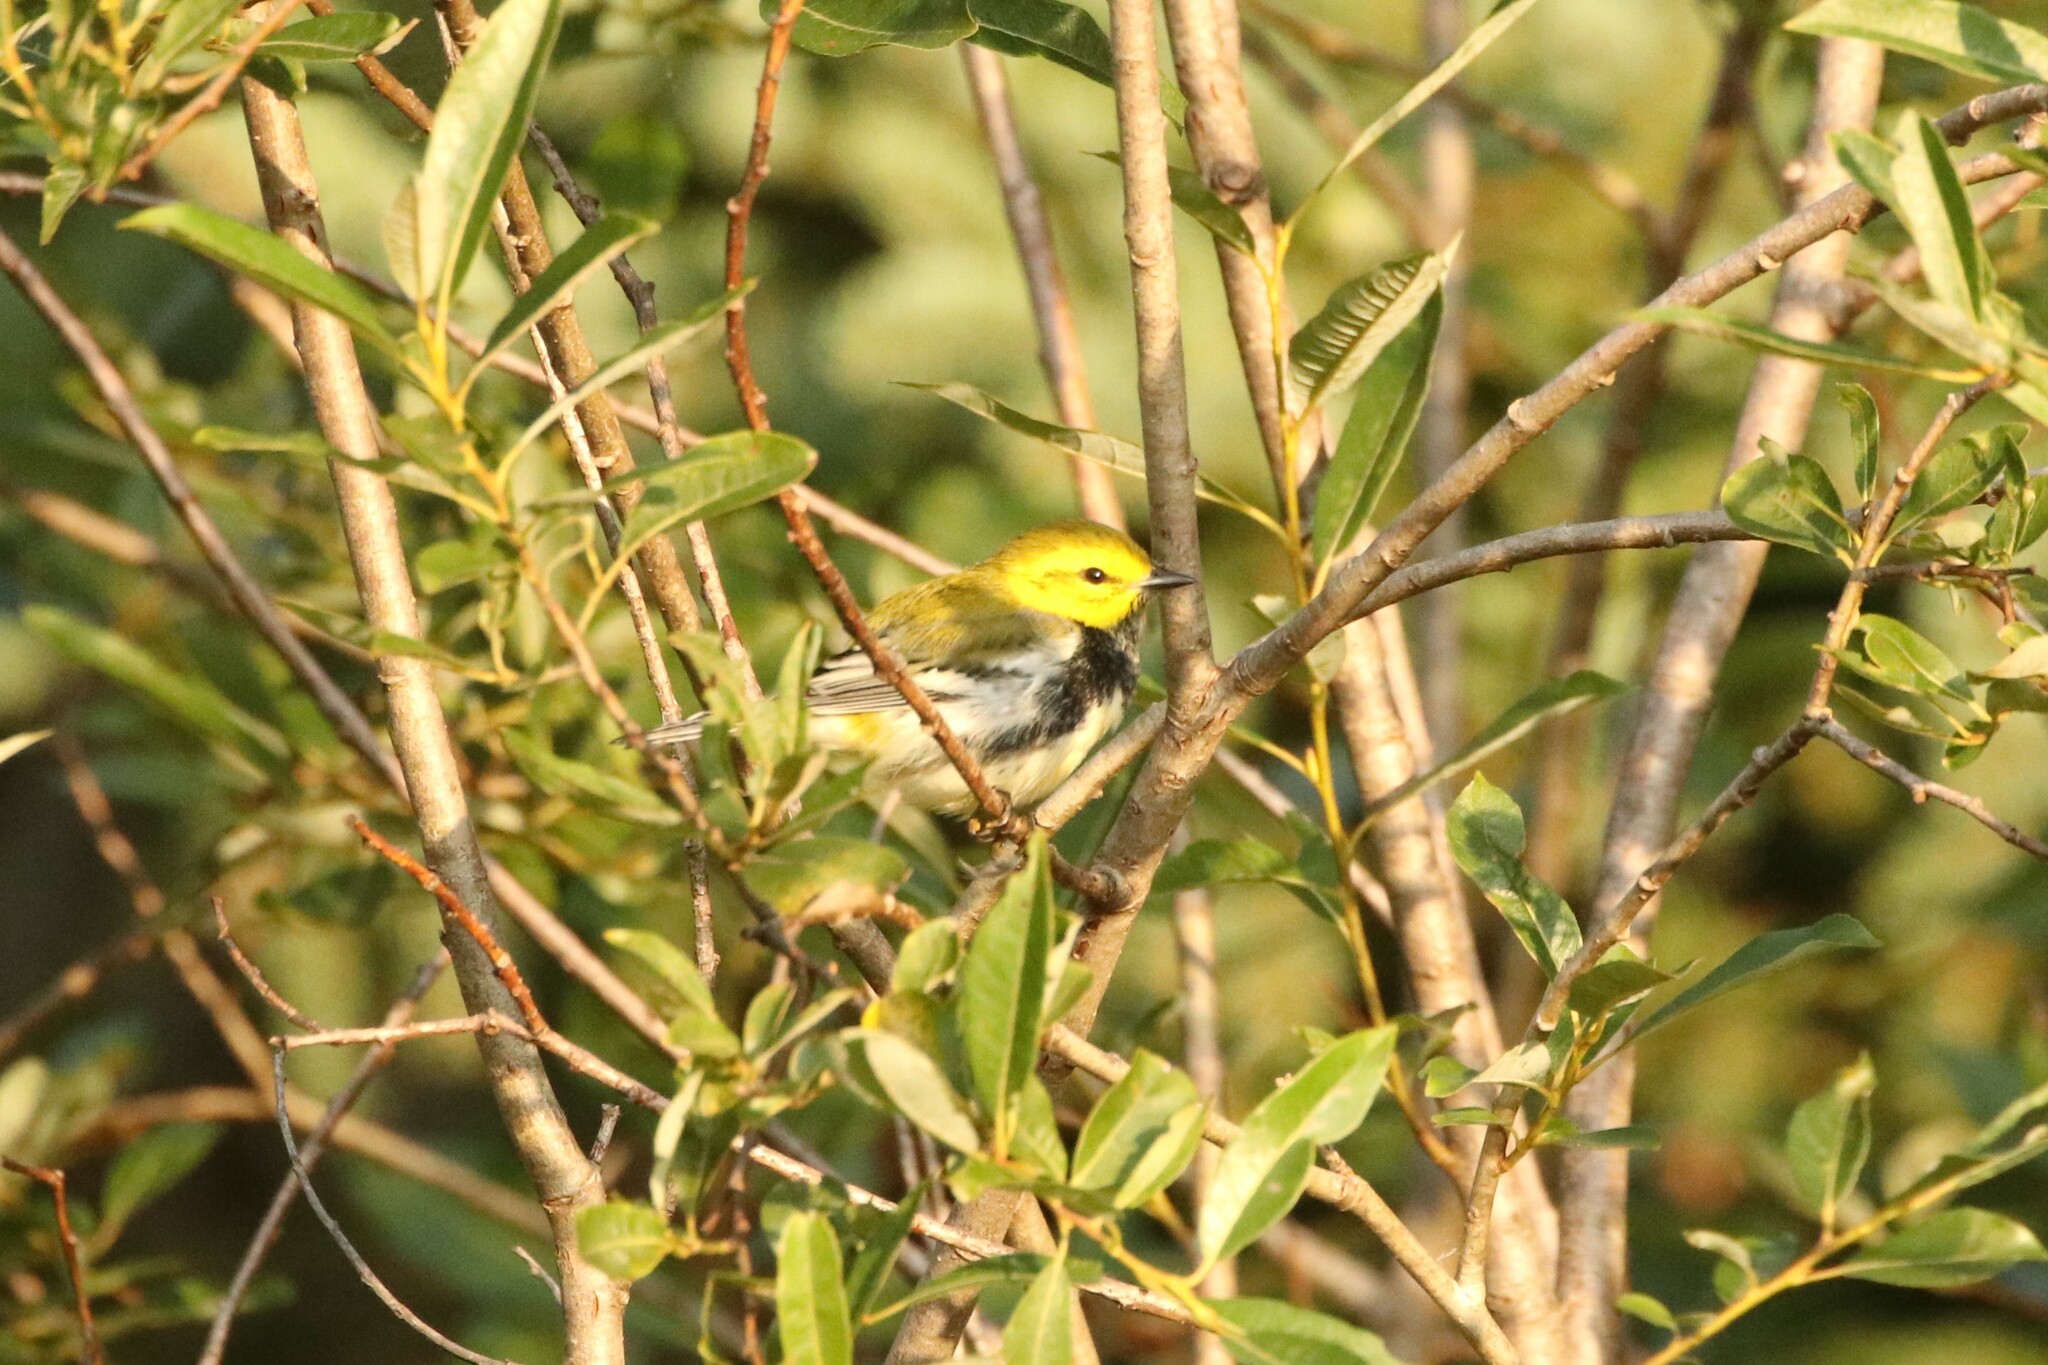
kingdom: Animalia
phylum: Chordata
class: Aves
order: Passeriformes
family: Parulidae
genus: Setophaga
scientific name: Setophaga virens
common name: Black-throated green warbler
